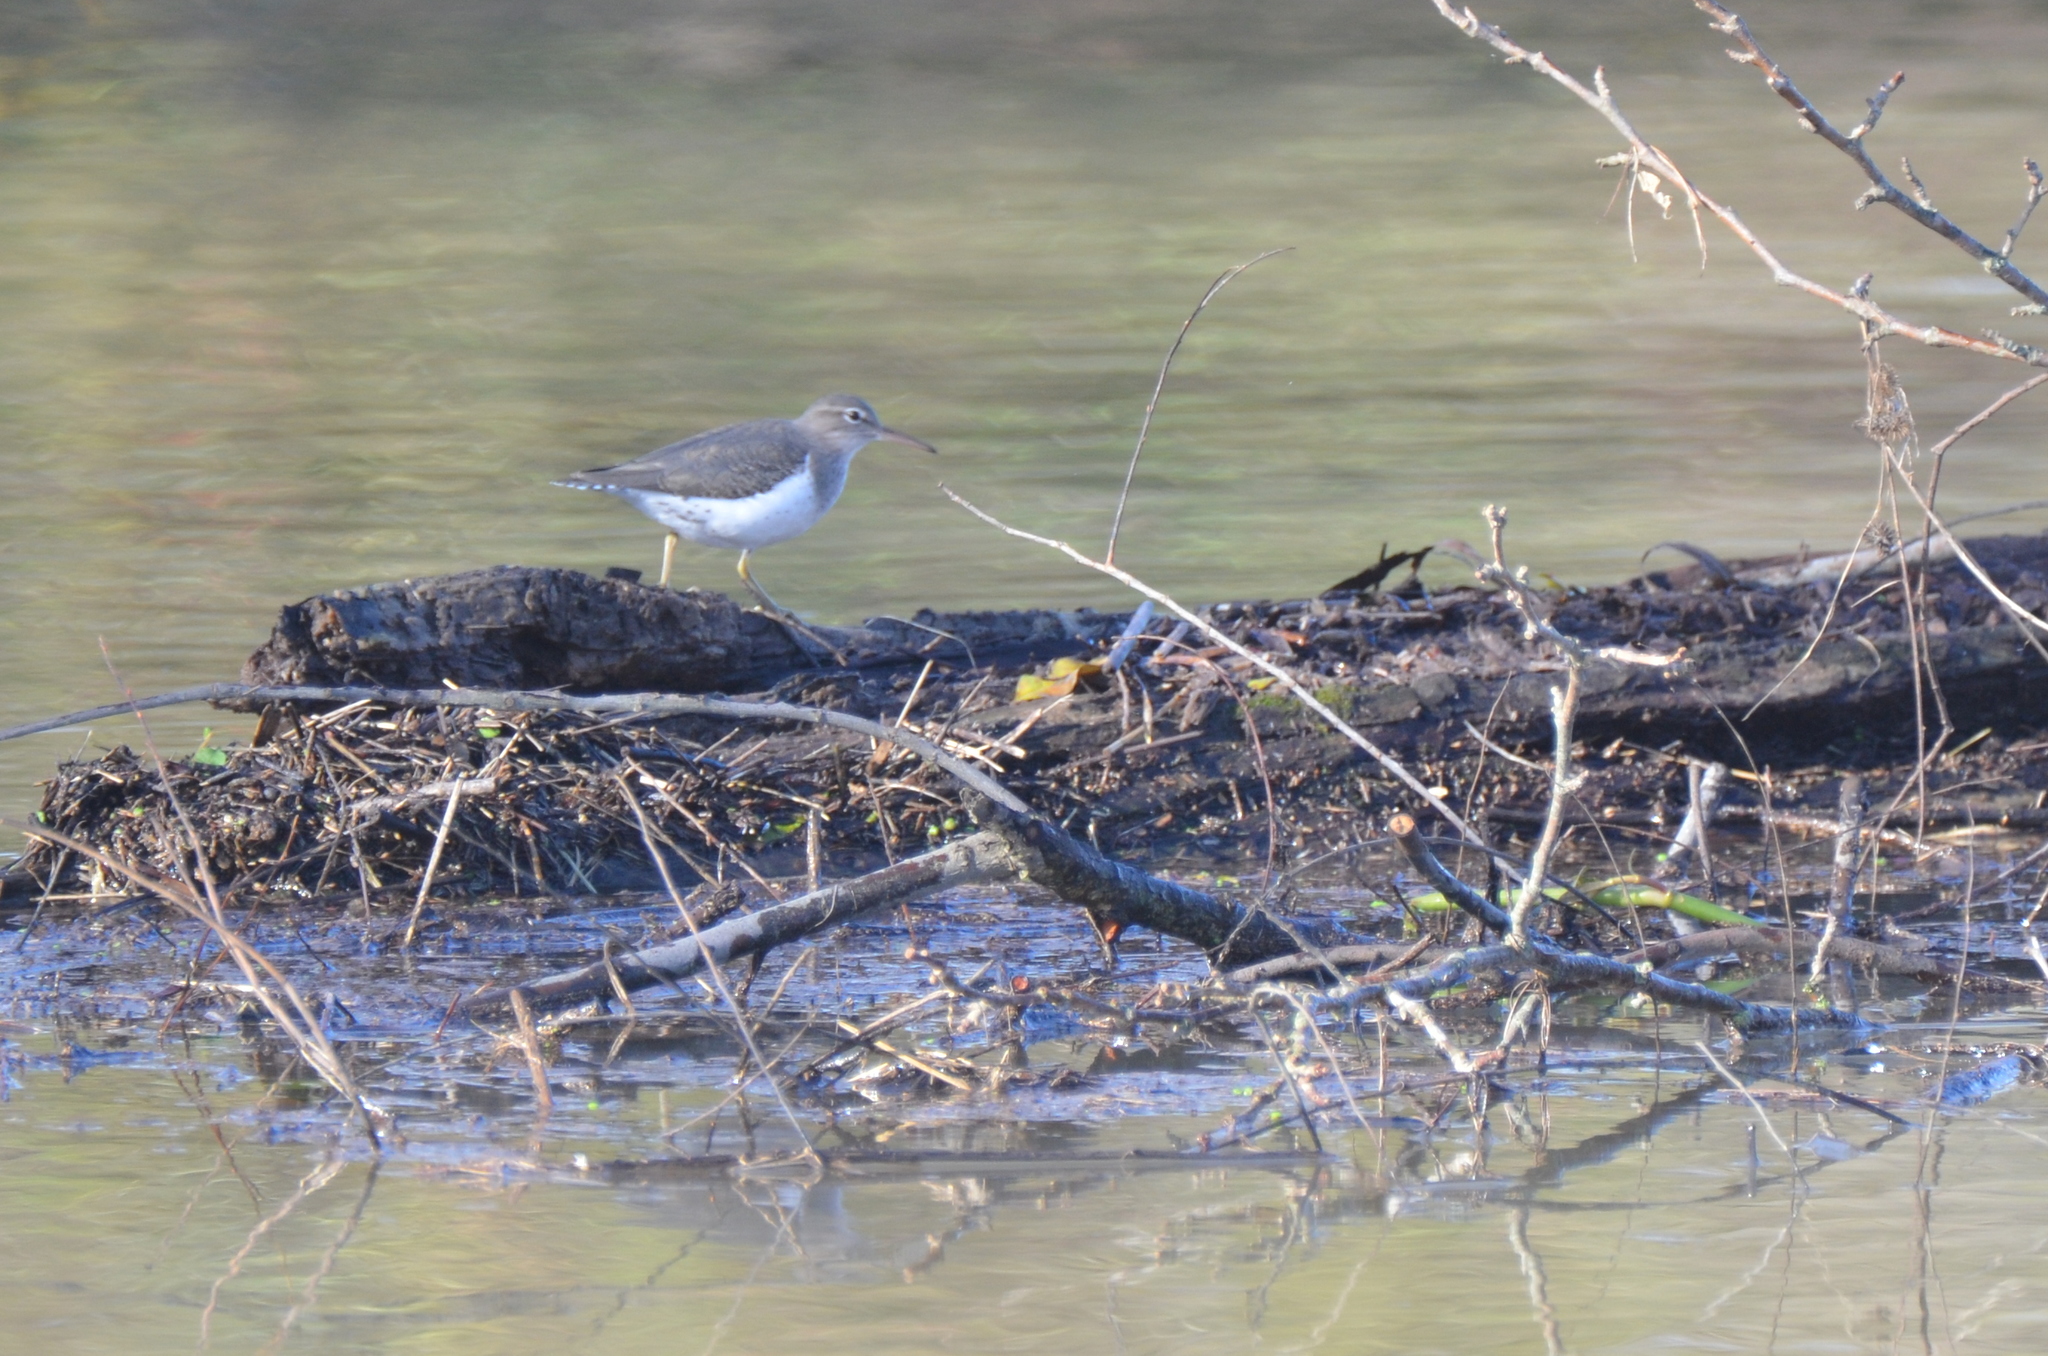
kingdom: Animalia
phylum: Chordata
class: Aves
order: Charadriiformes
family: Scolopacidae
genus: Actitis
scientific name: Actitis macularius
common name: Spotted sandpiper
